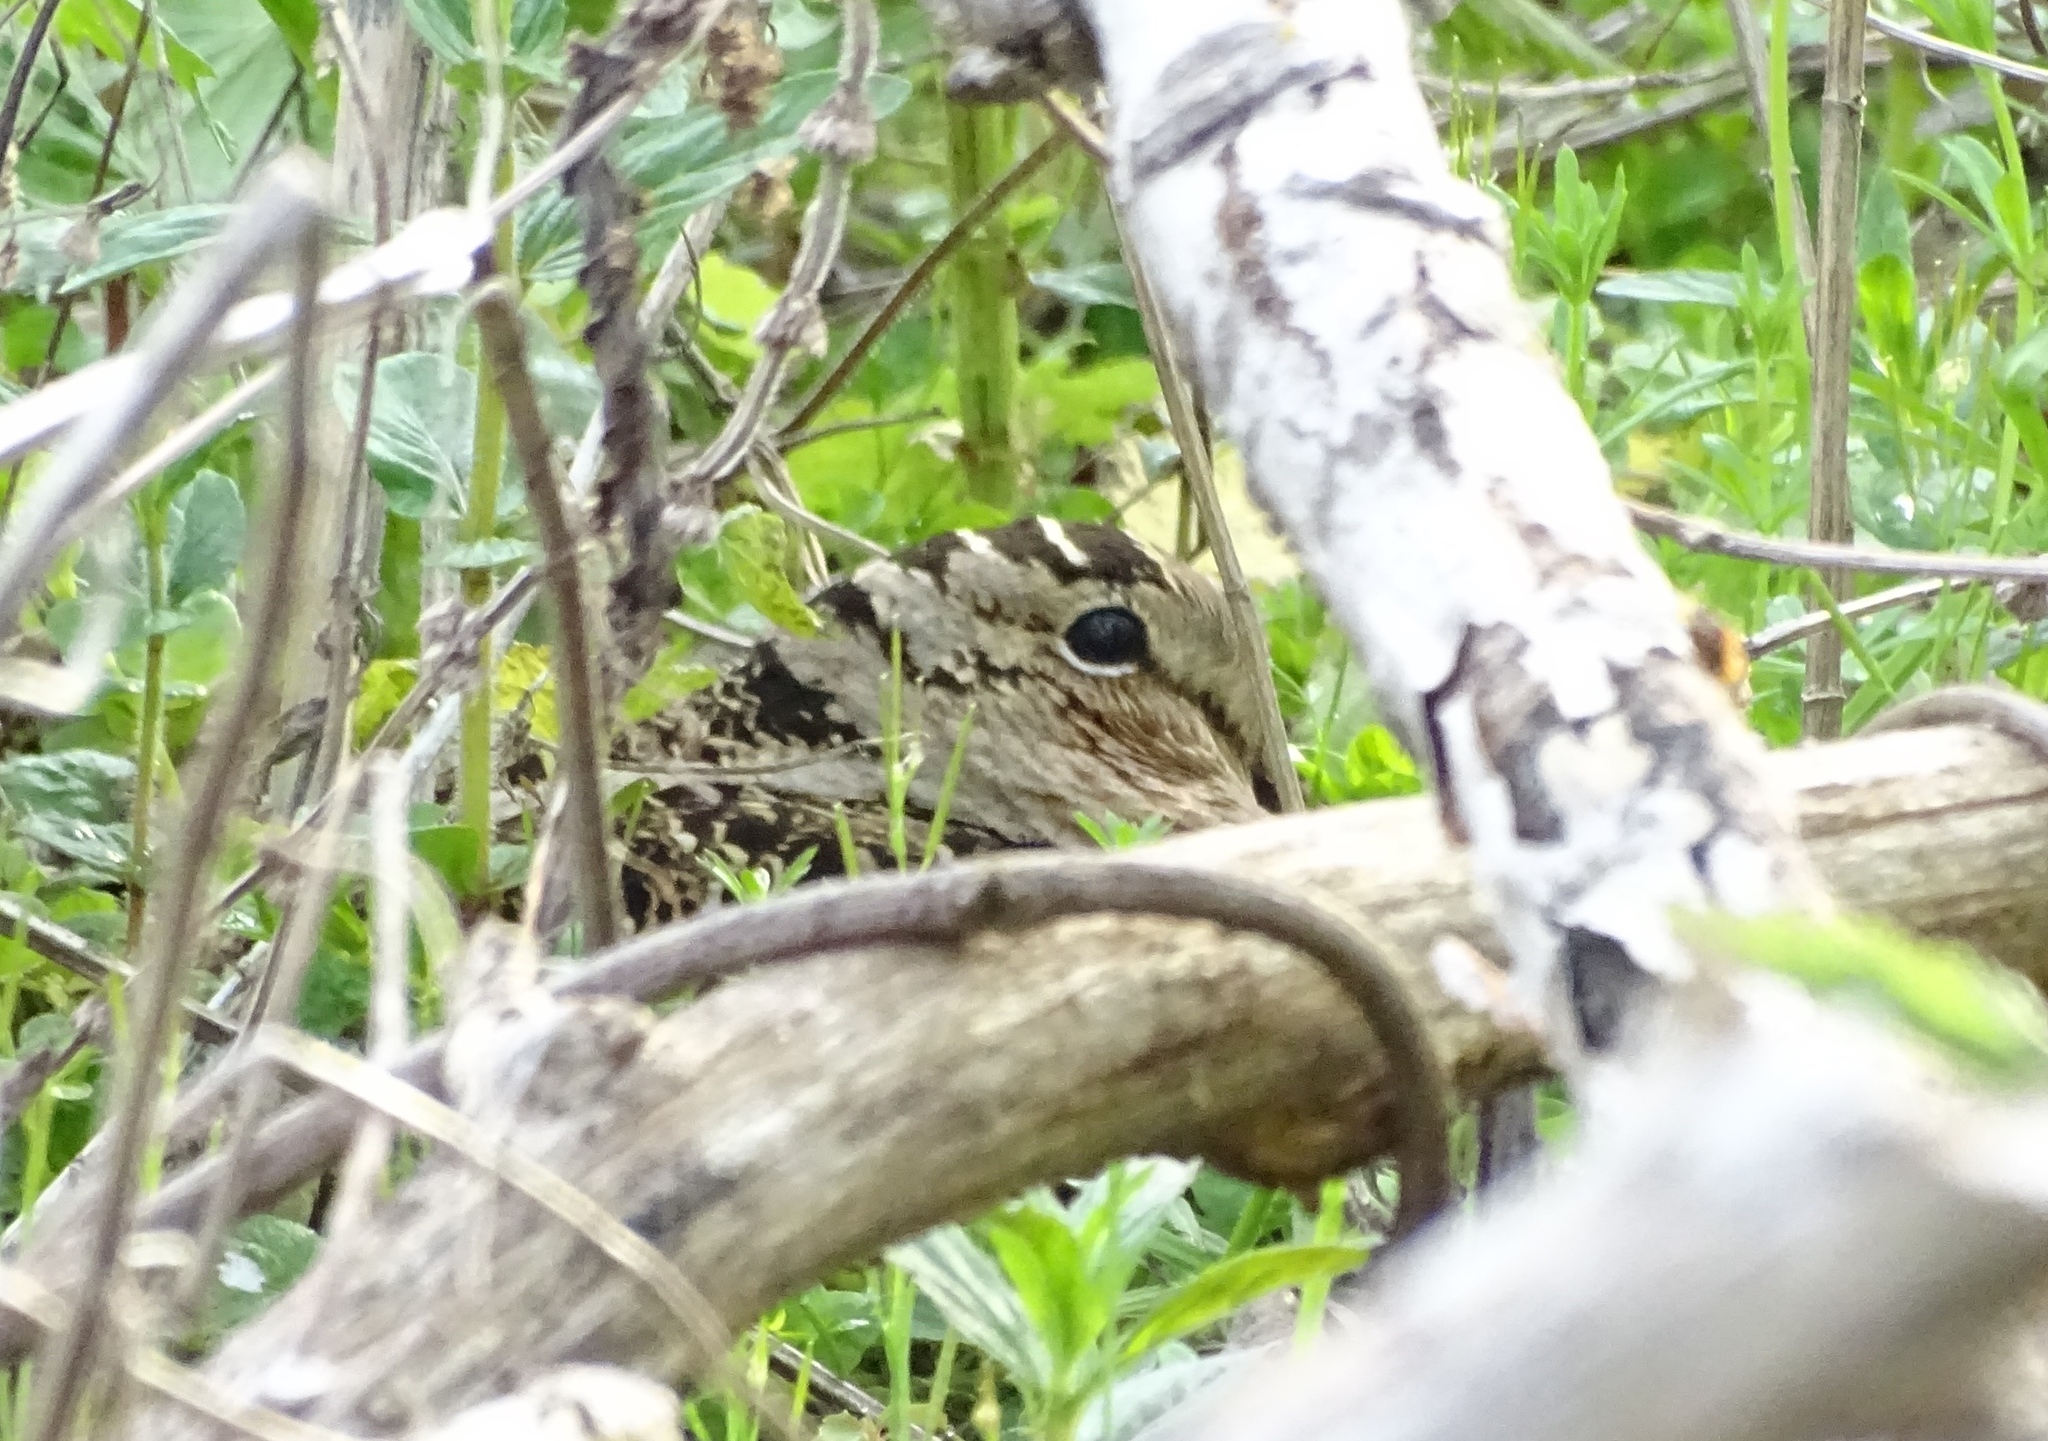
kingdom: Animalia
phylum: Chordata
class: Aves
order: Charadriiformes
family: Scolopacidae
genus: Scolopax
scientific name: Scolopax minor
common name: American woodcock
